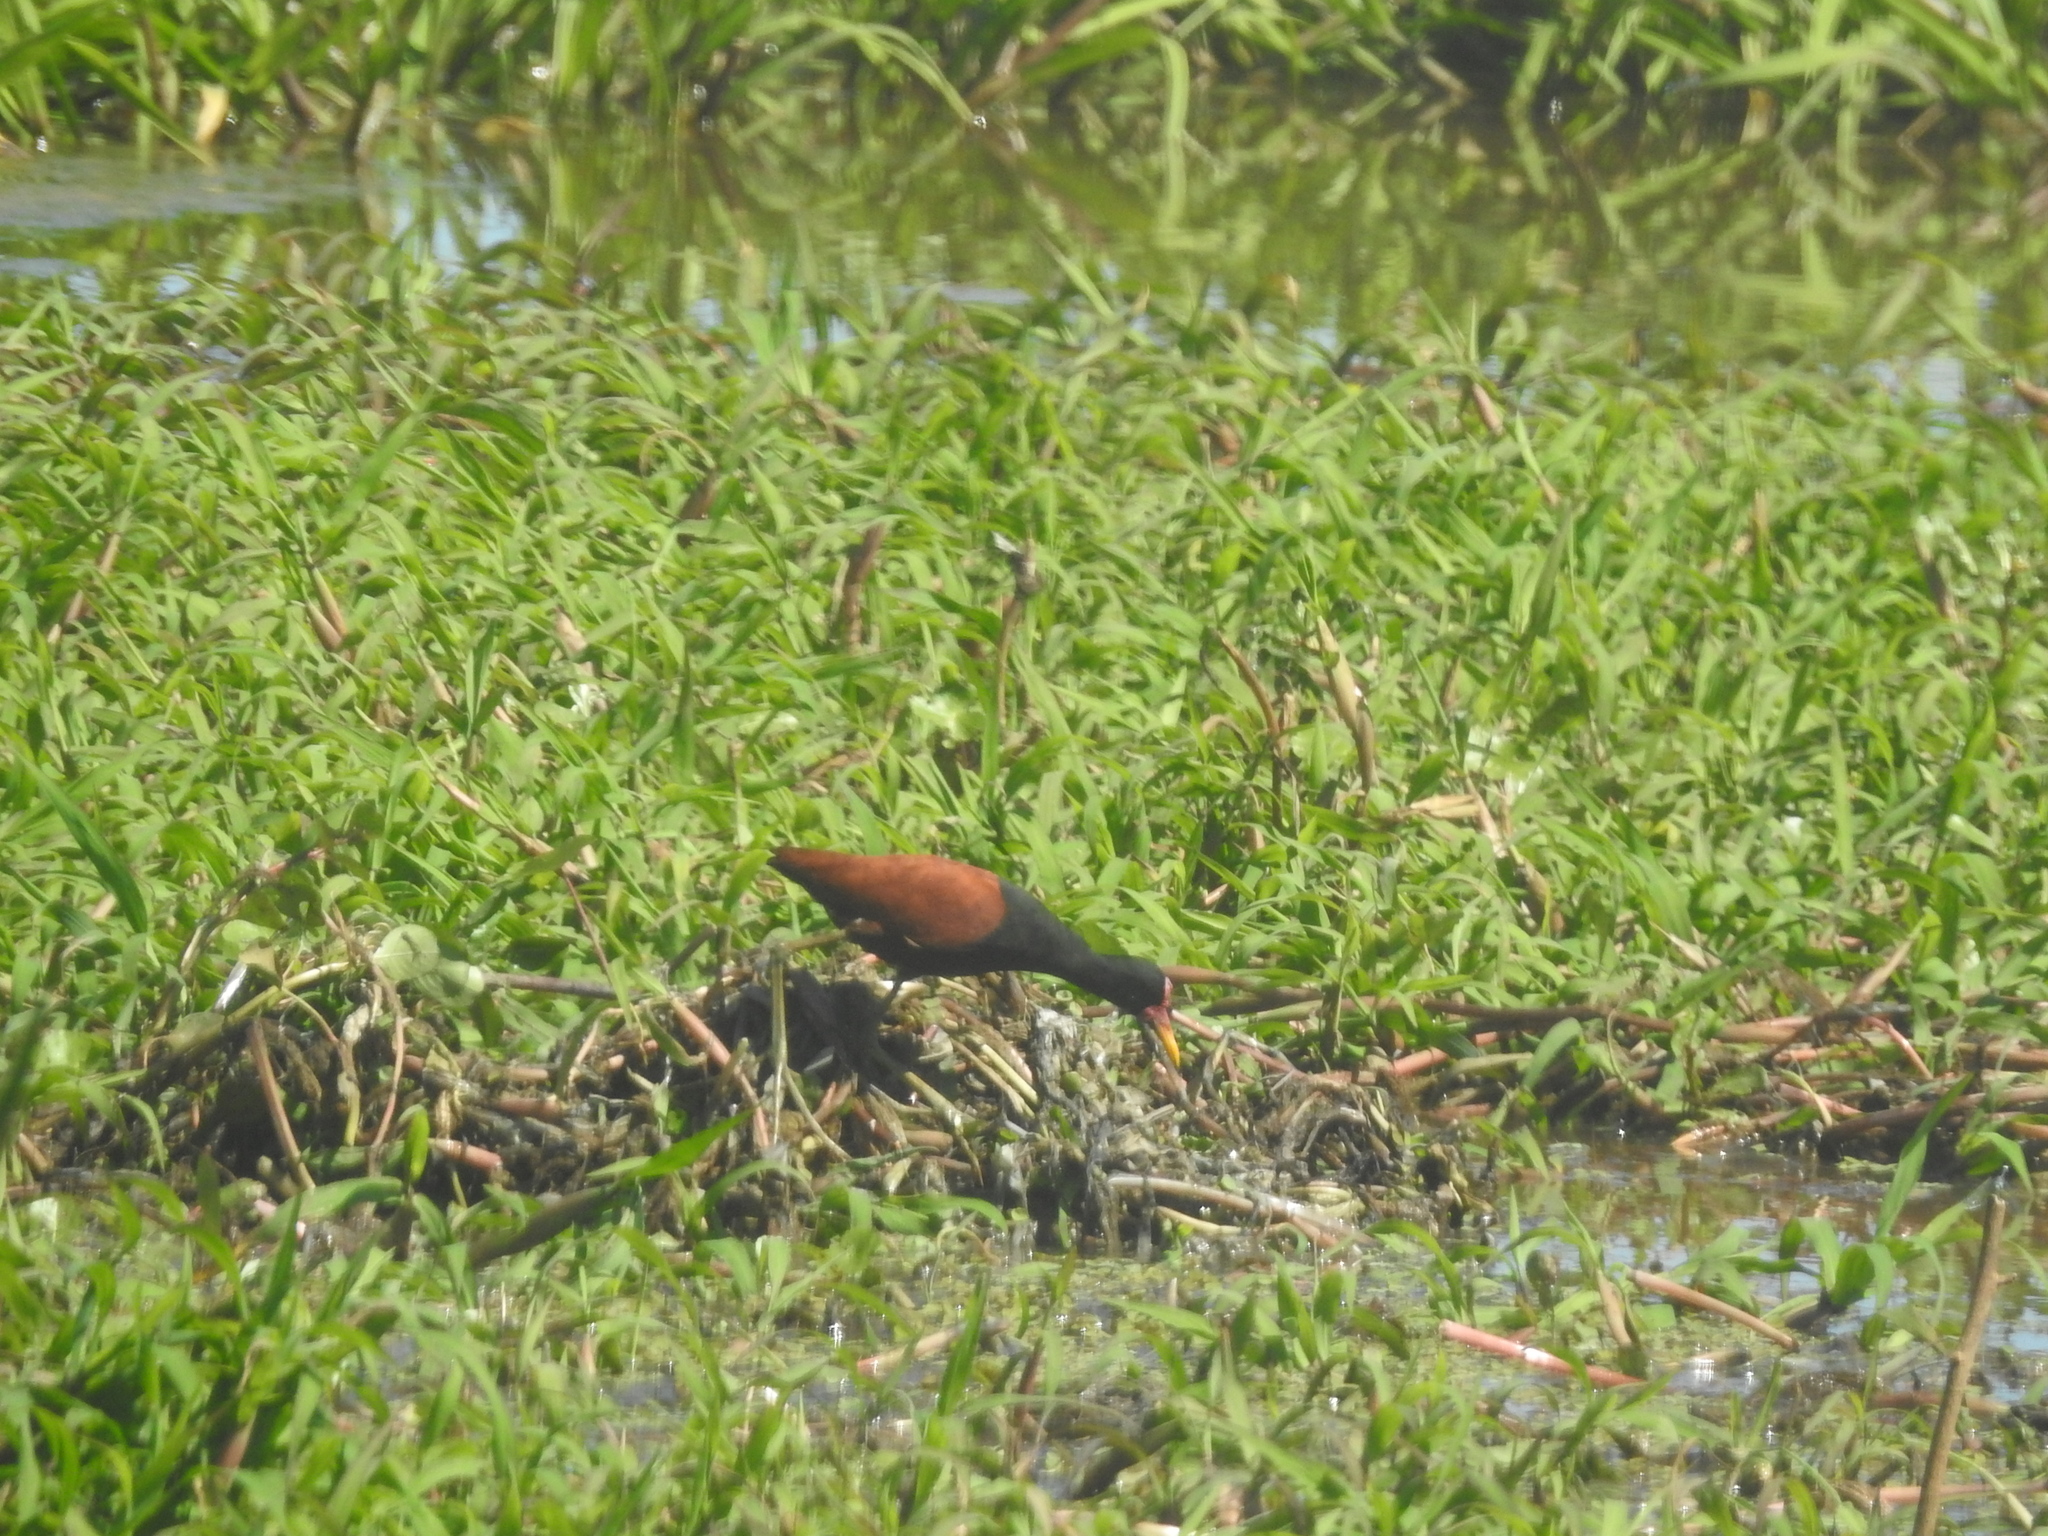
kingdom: Animalia
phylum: Chordata
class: Aves
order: Charadriiformes
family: Jacanidae
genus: Jacana
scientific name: Jacana jacana
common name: Wattled jacana
